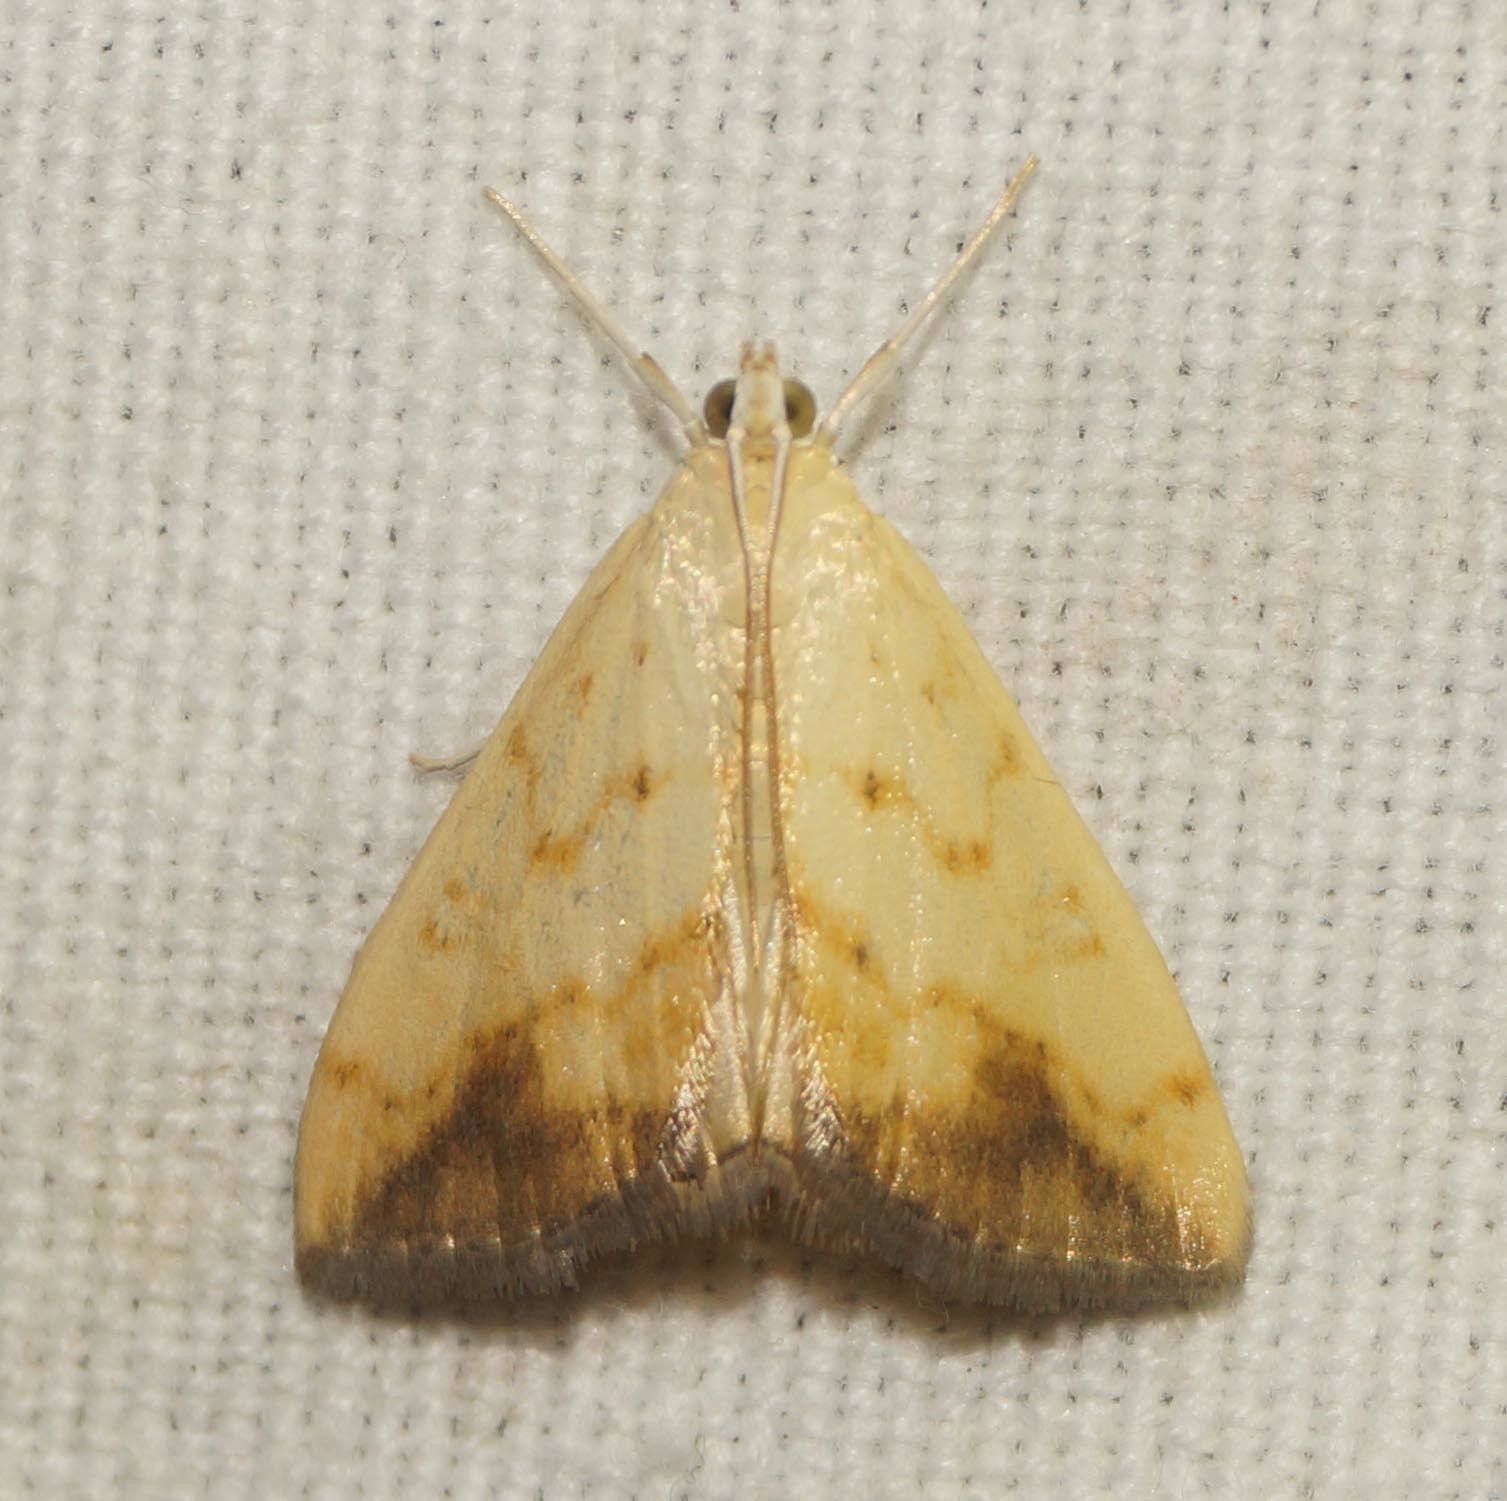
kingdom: Animalia
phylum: Arthropoda
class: Insecta
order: Lepidoptera
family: Crambidae
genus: Evergestis
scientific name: Evergestis extimalis
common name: Marbled yellow pearl
